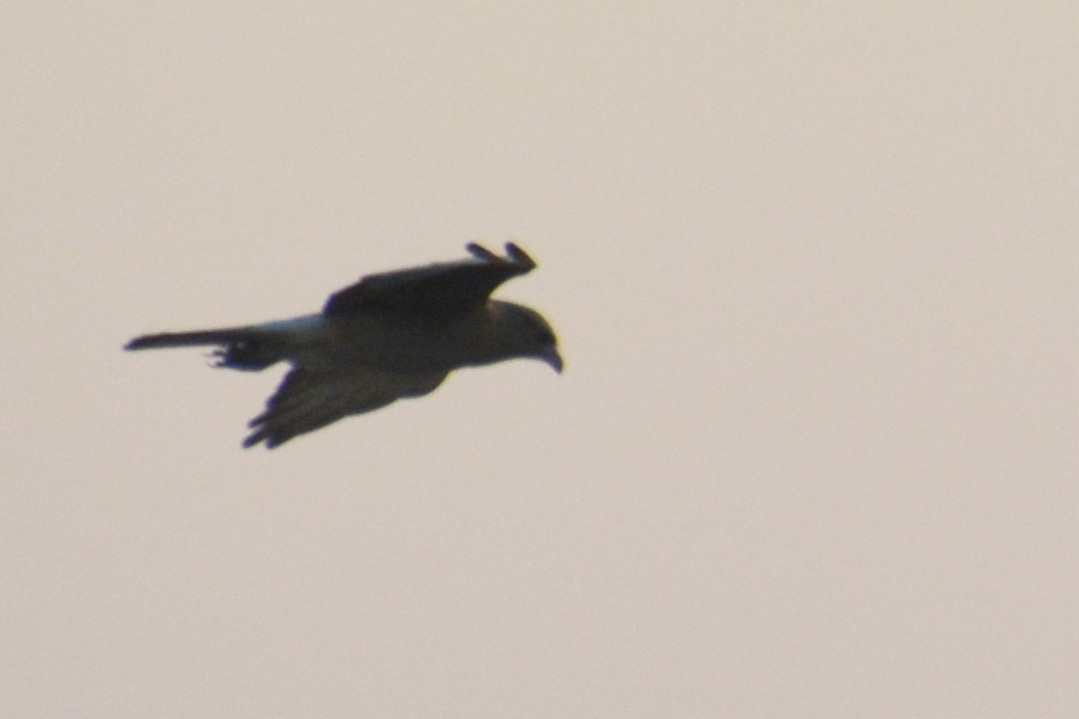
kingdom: Animalia
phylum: Chordata
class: Aves
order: Falconiformes
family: Falconidae
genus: Daptrius
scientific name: Daptrius
